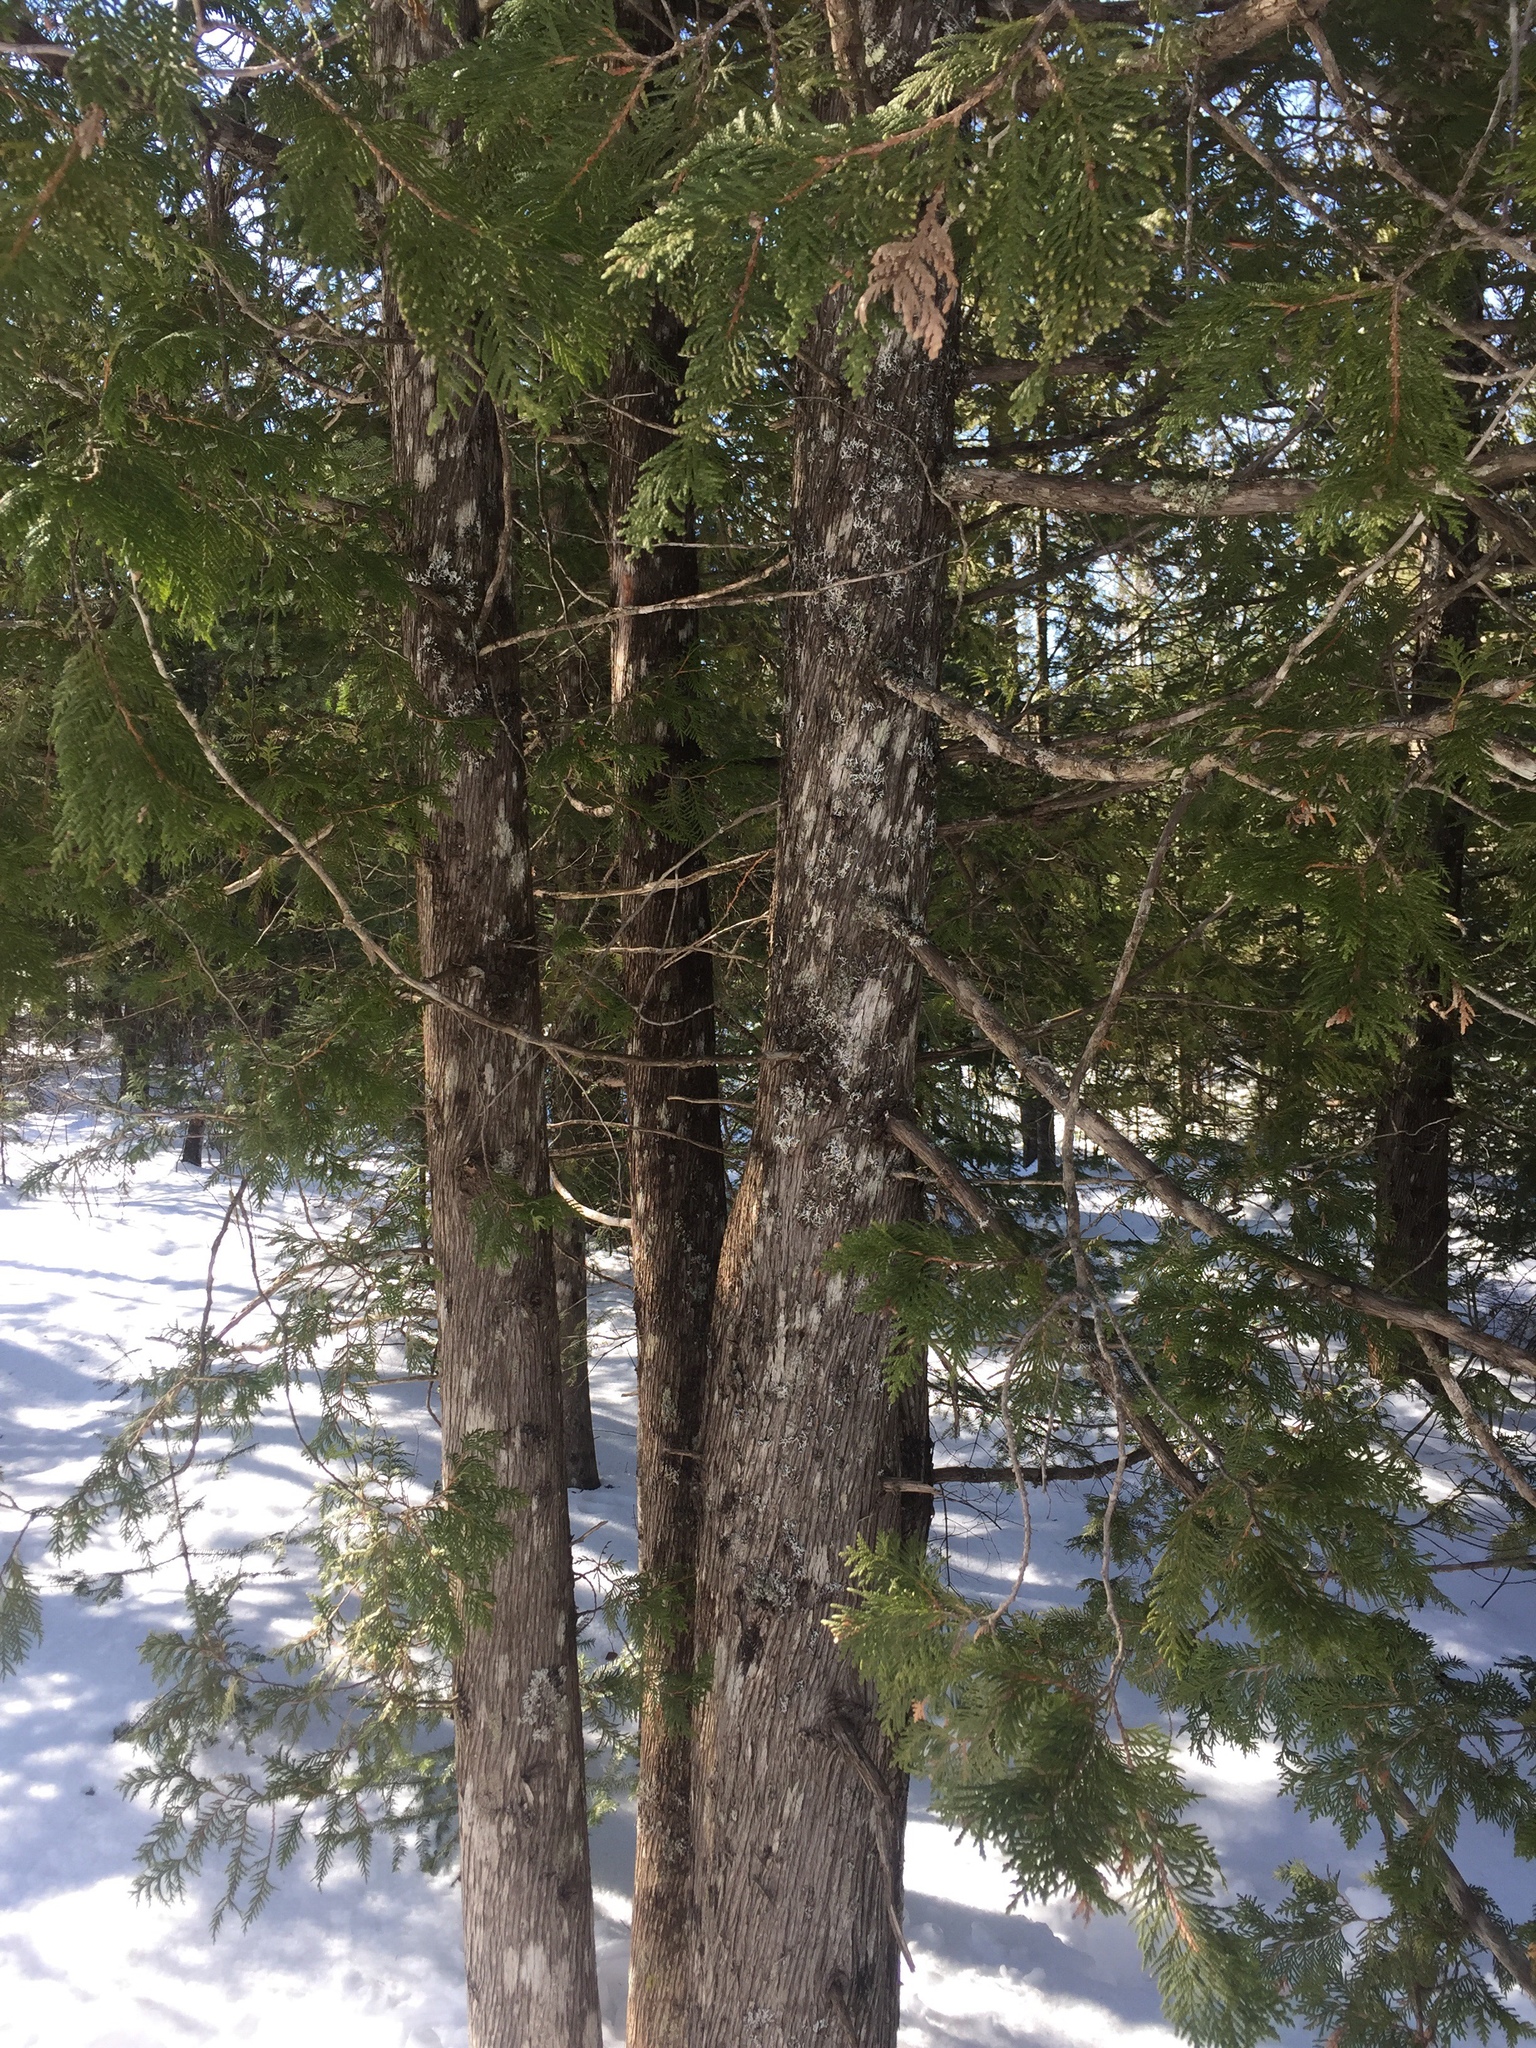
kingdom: Plantae
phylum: Tracheophyta
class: Pinopsida
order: Pinales
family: Cupressaceae
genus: Thuja
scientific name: Thuja occidentalis
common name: Northern white-cedar
